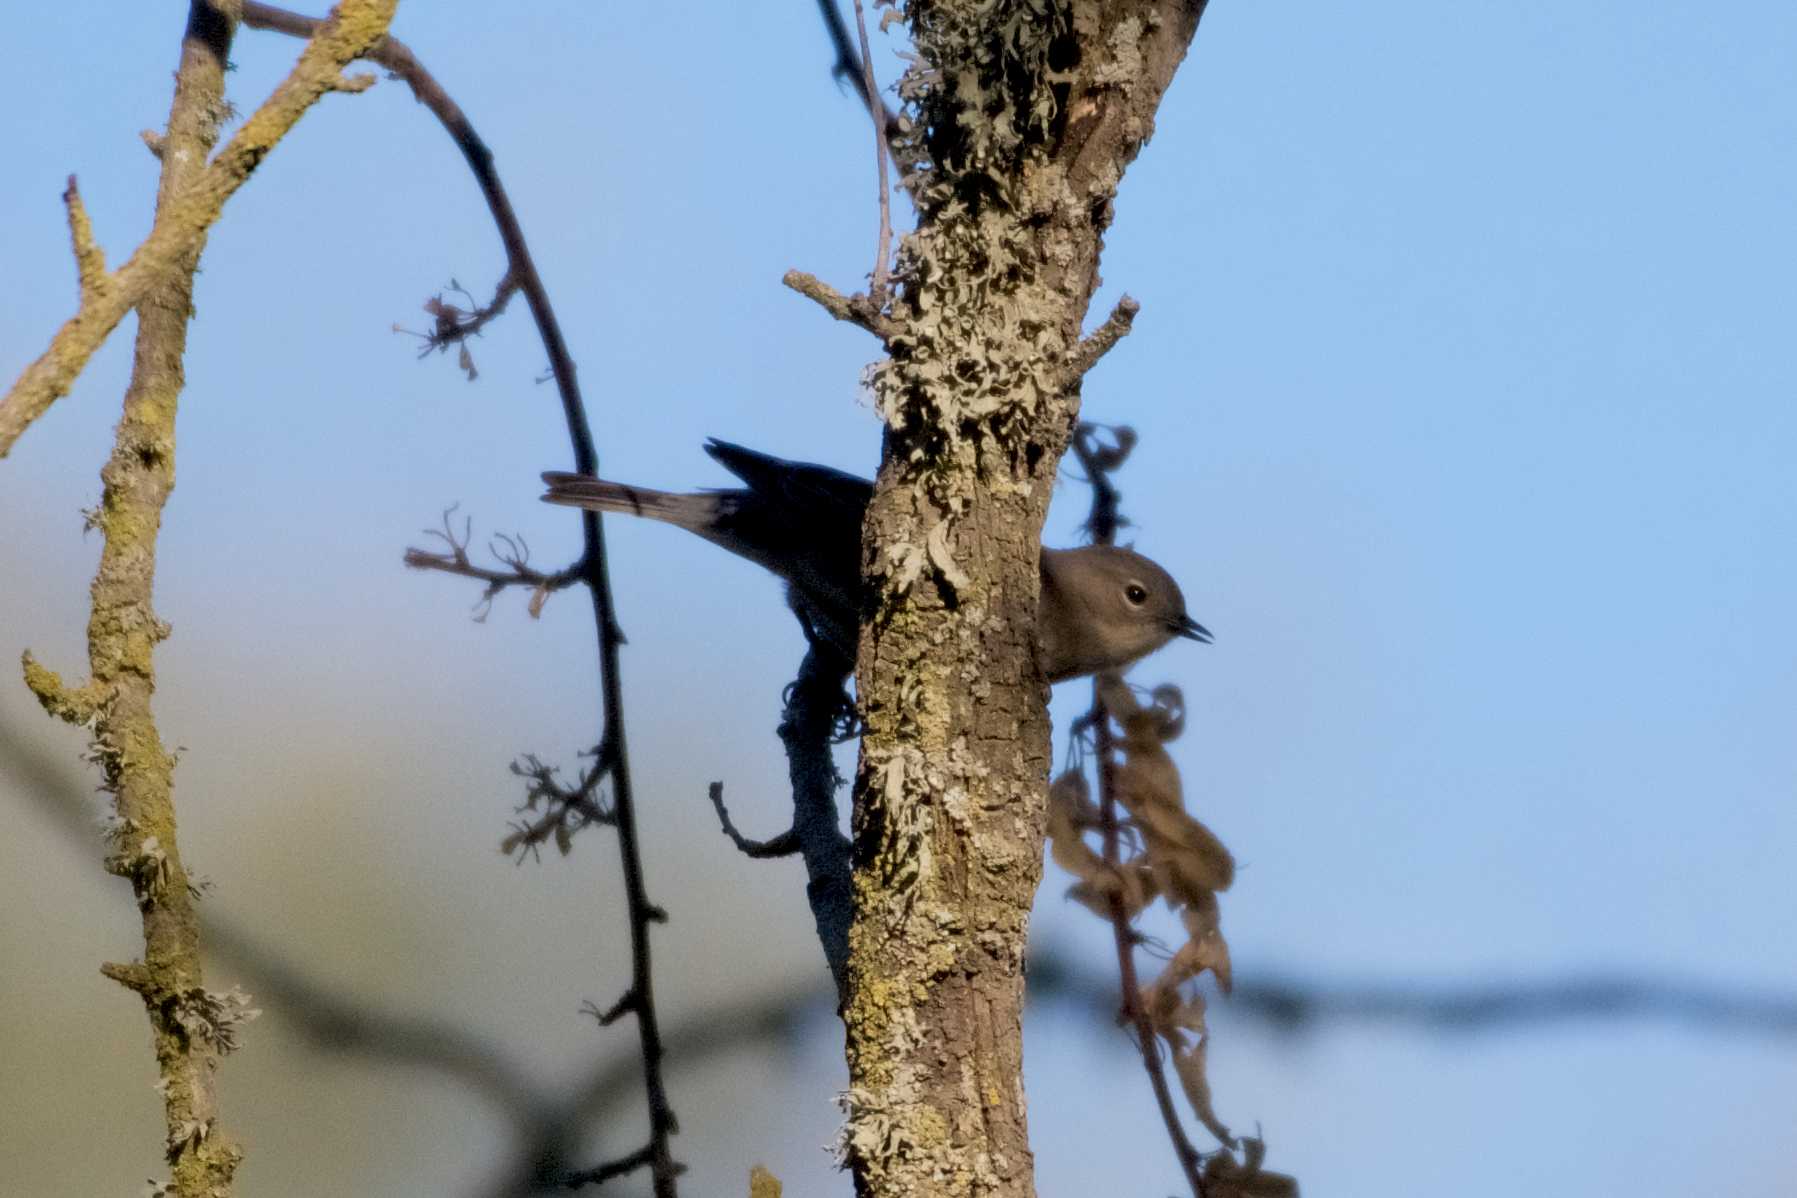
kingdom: Animalia
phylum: Chordata
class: Aves
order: Passeriformes
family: Parulidae
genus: Setophaga
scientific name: Setophaga coronata
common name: Myrtle warbler
